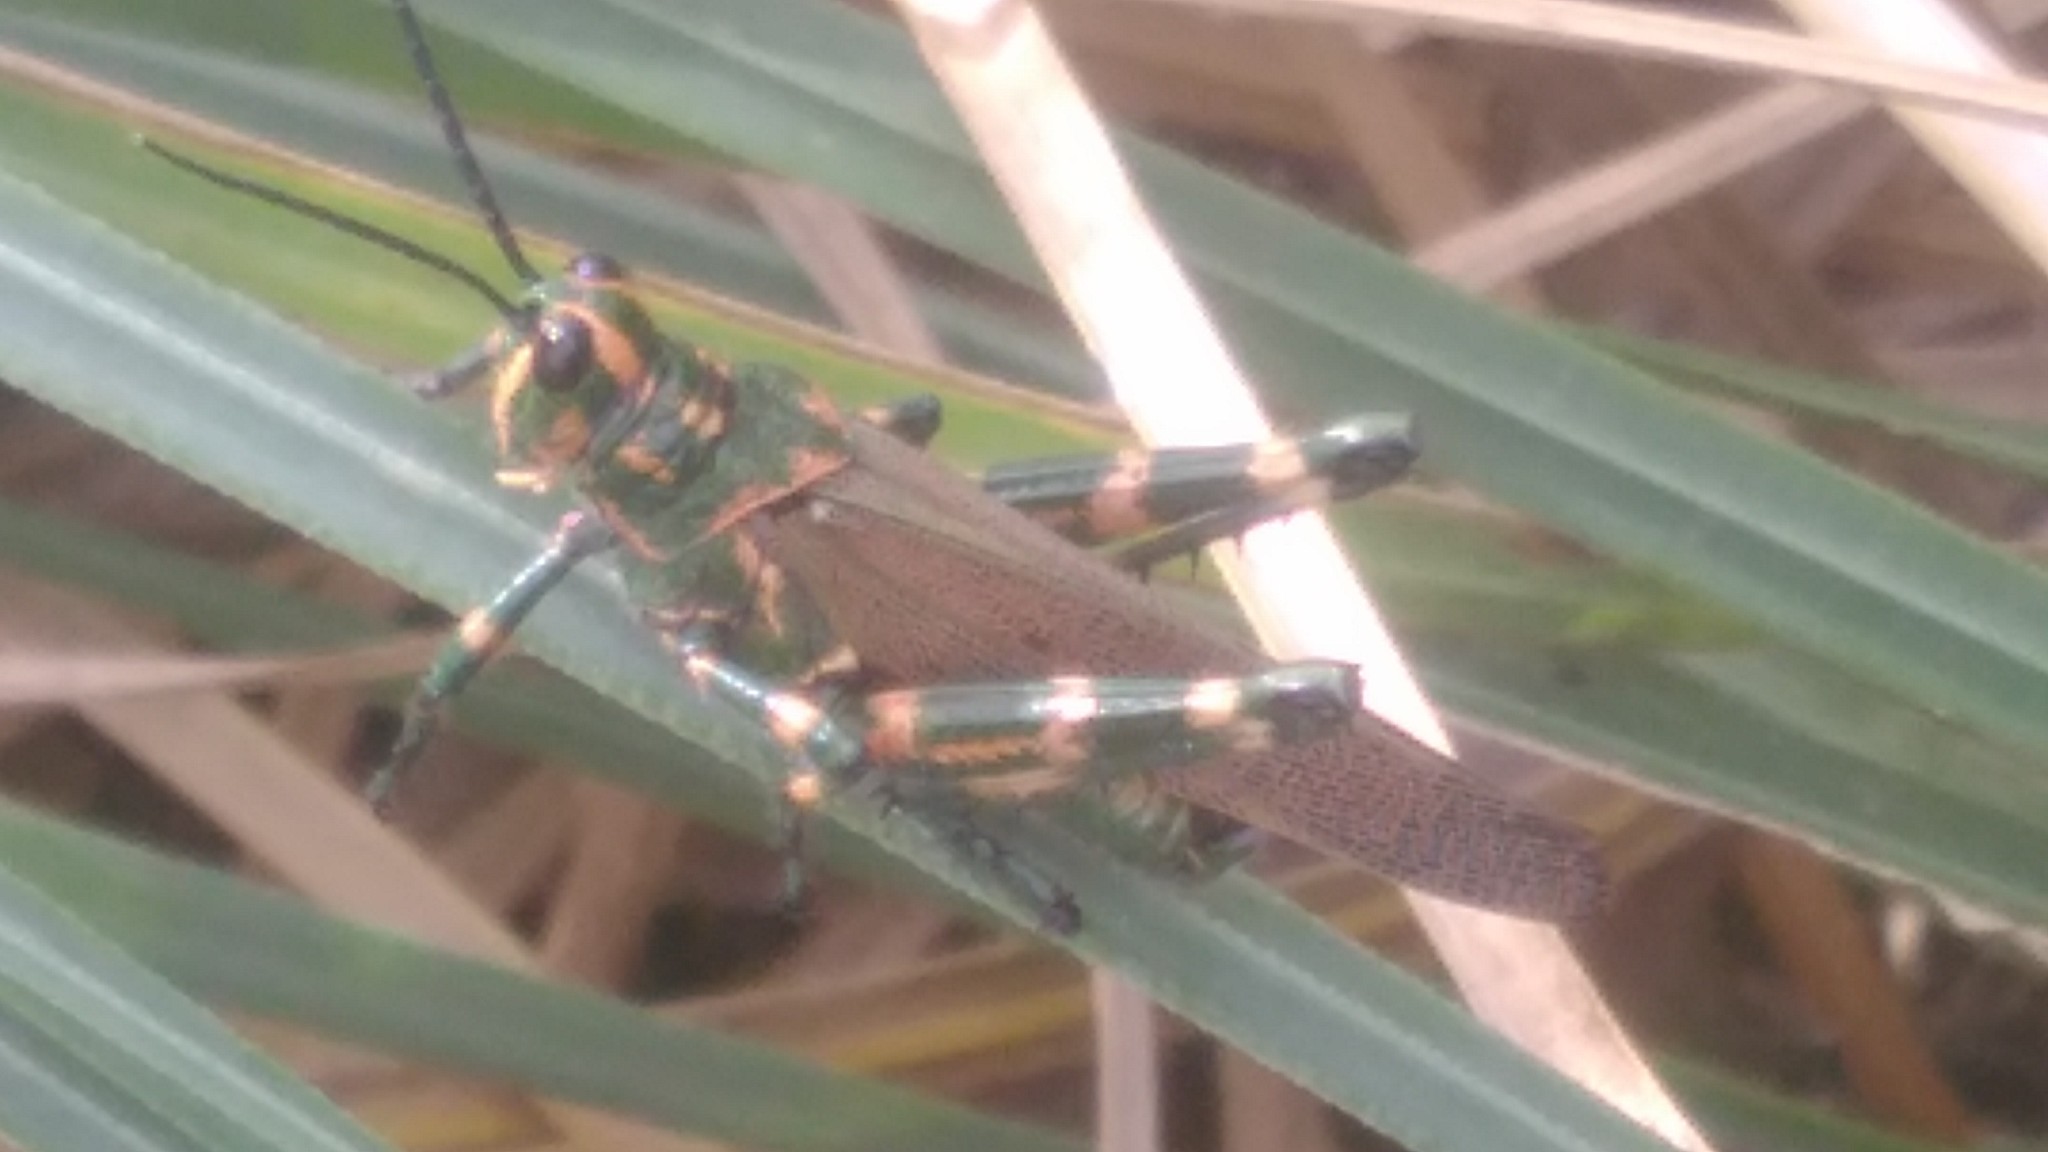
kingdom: Animalia
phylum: Arthropoda
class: Insecta
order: Orthoptera
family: Romaleidae
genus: Chromacris
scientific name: Chromacris speciosa
